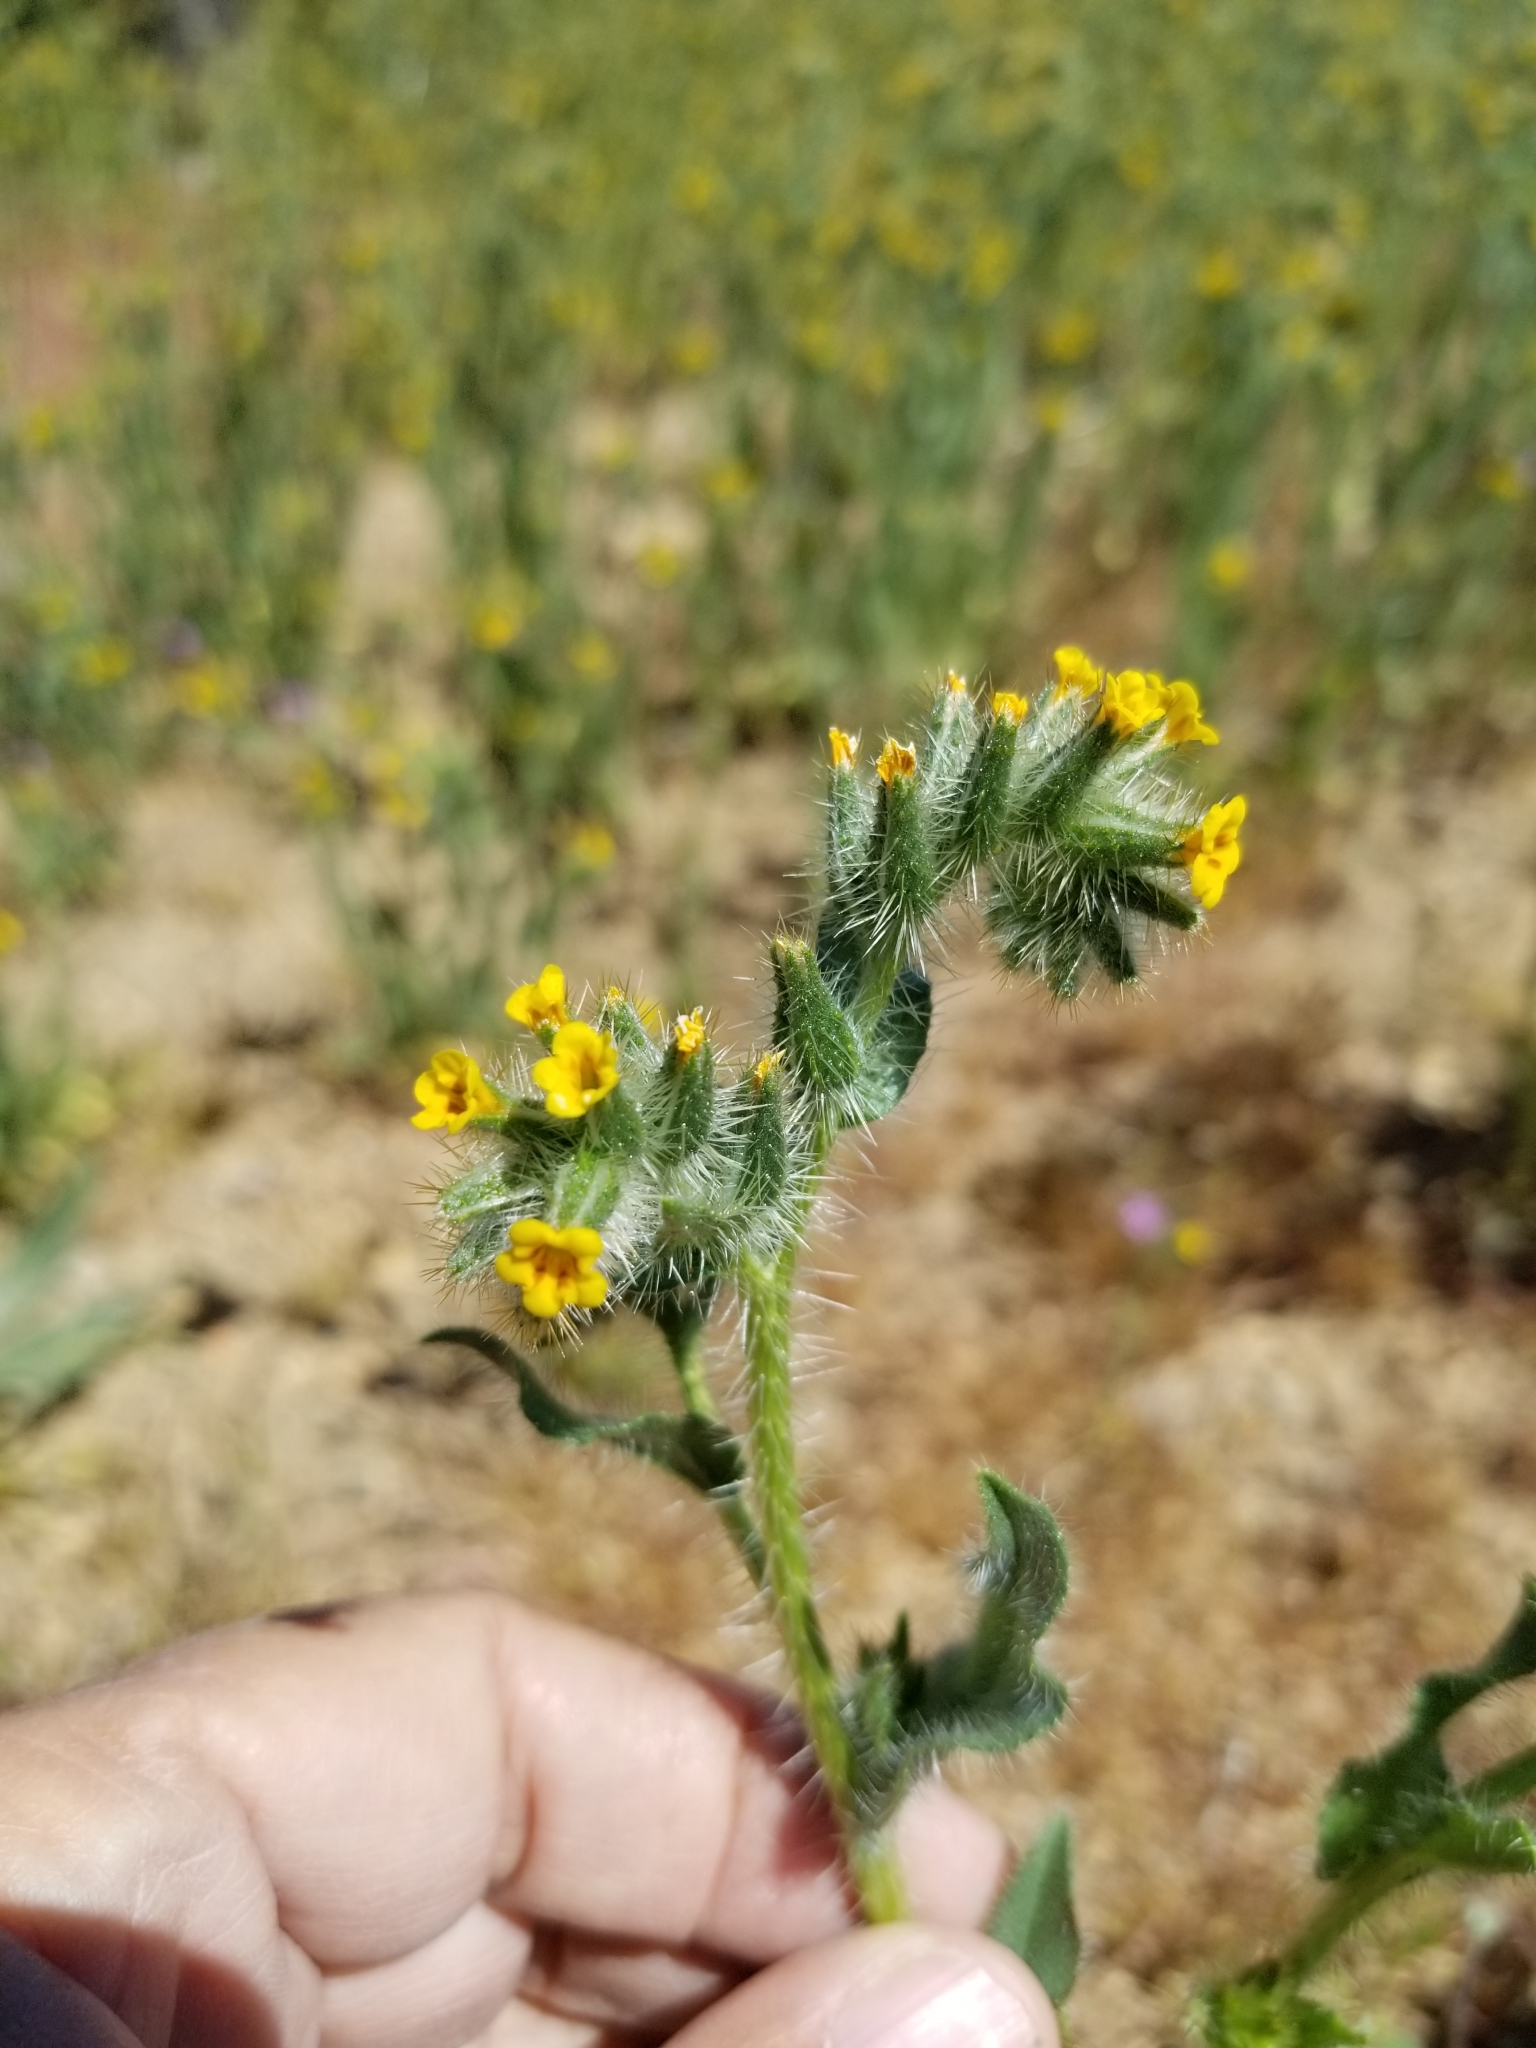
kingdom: Plantae
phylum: Tracheophyta
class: Magnoliopsida
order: Boraginales
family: Boraginaceae
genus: Amsinckia
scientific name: Amsinckia tessellata
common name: Tessellate fiddleneck
